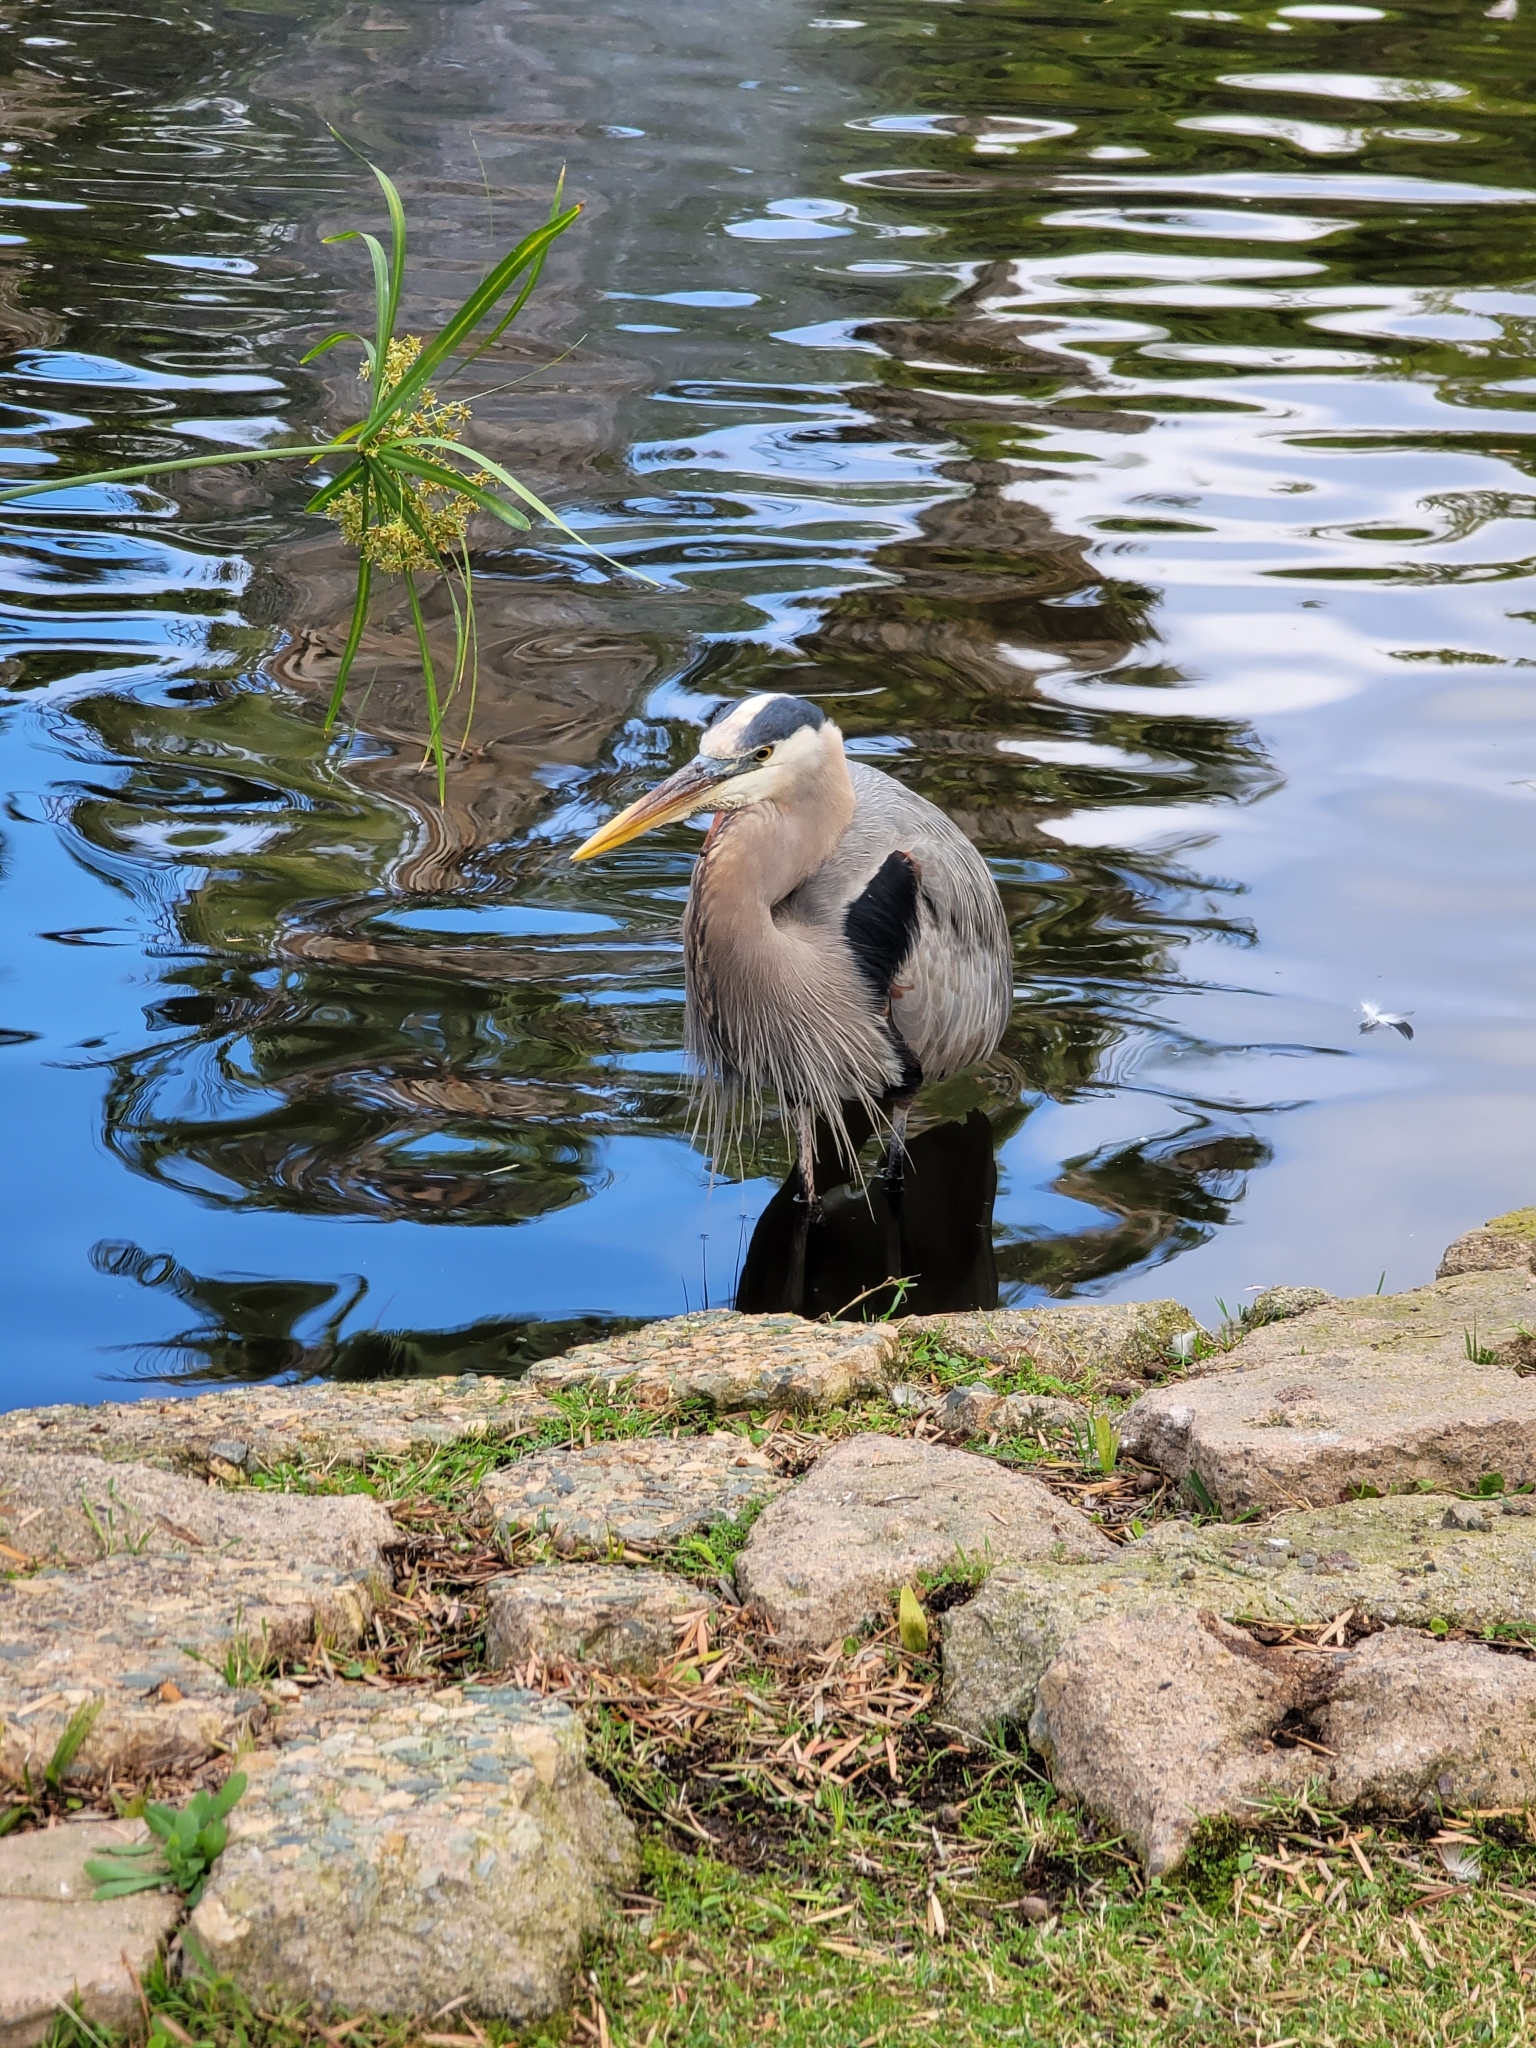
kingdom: Animalia
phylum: Chordata
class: Aves
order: Pelecaniformes
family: Ardeidae
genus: Ardea
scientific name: Ardea herodias
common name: Great blue heron
